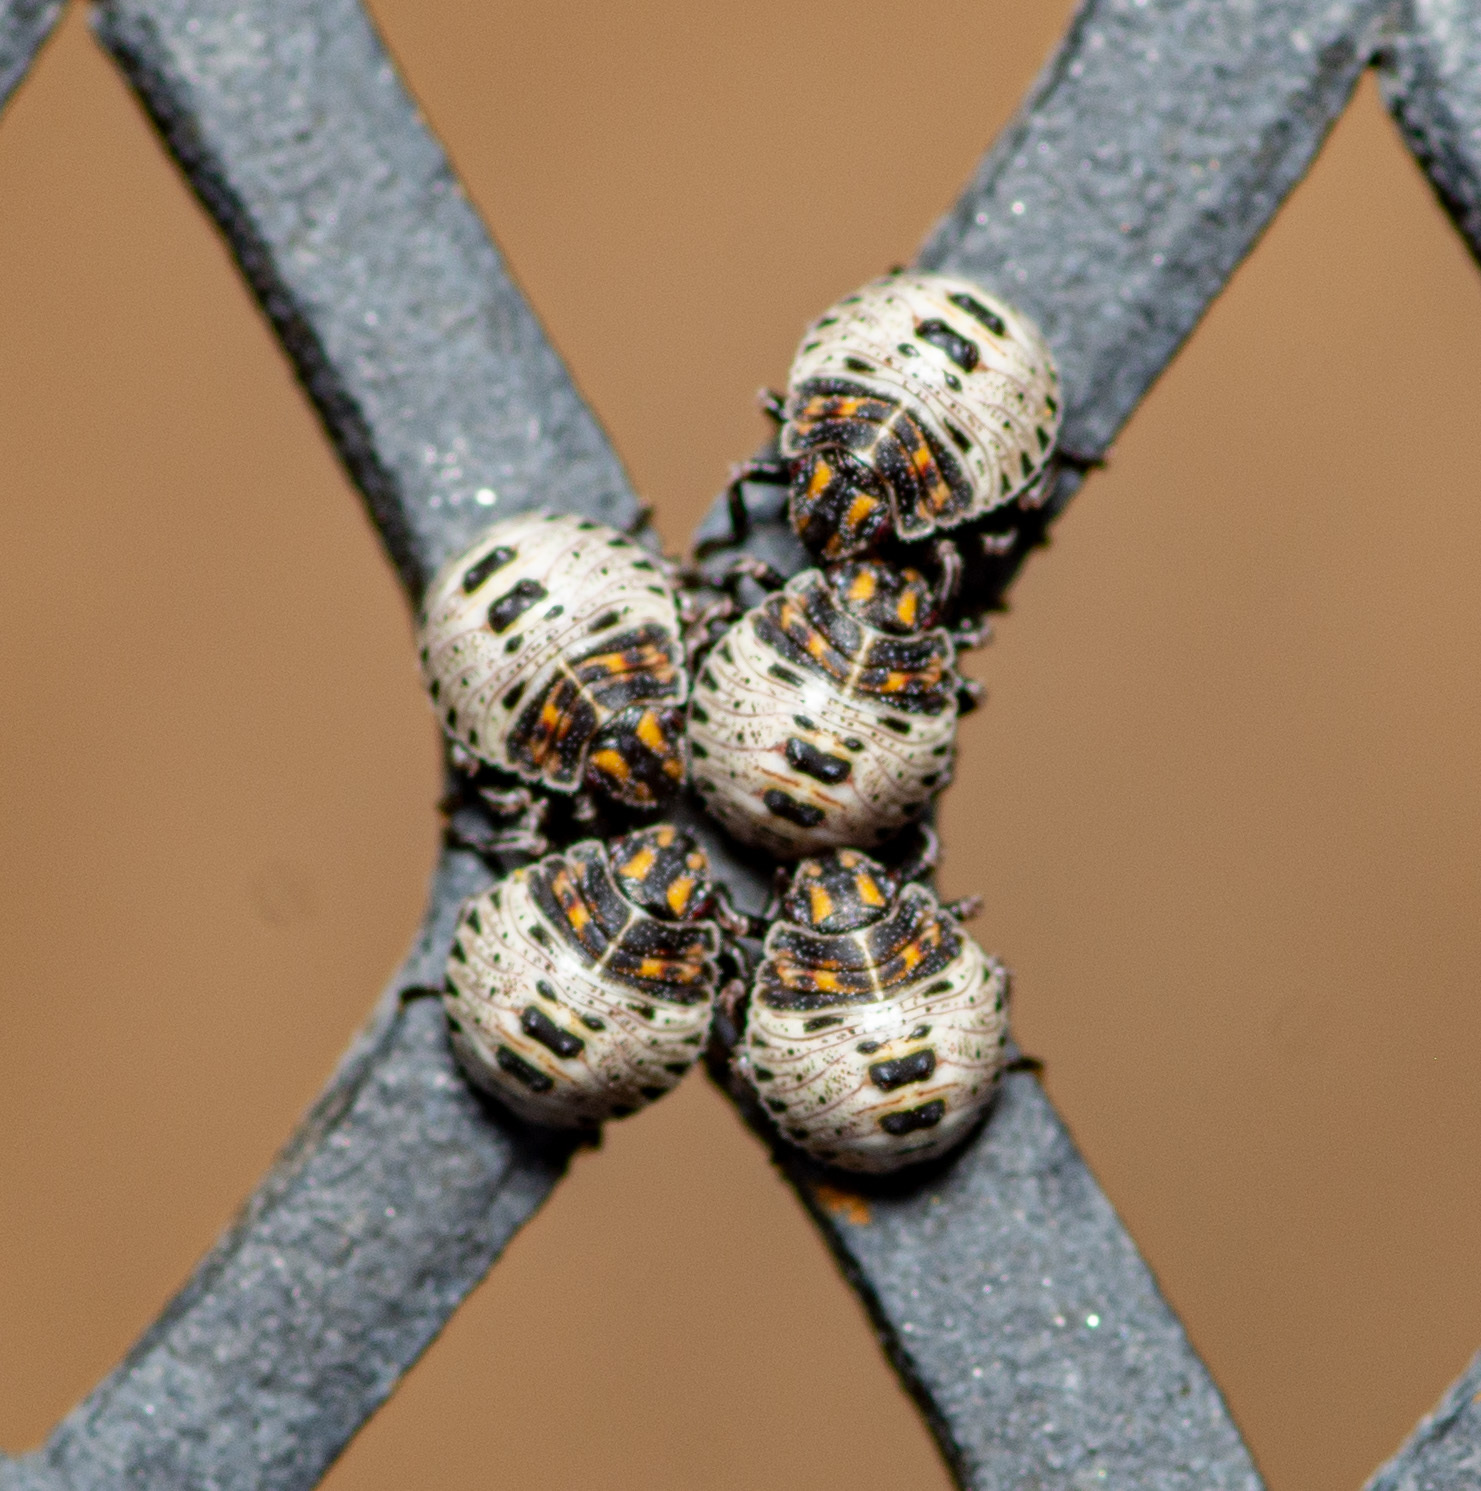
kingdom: Animalia
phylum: Arthropoda
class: Insecta
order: Hemiptera
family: Pentatomidae
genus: Brochymena
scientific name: Brochymena
